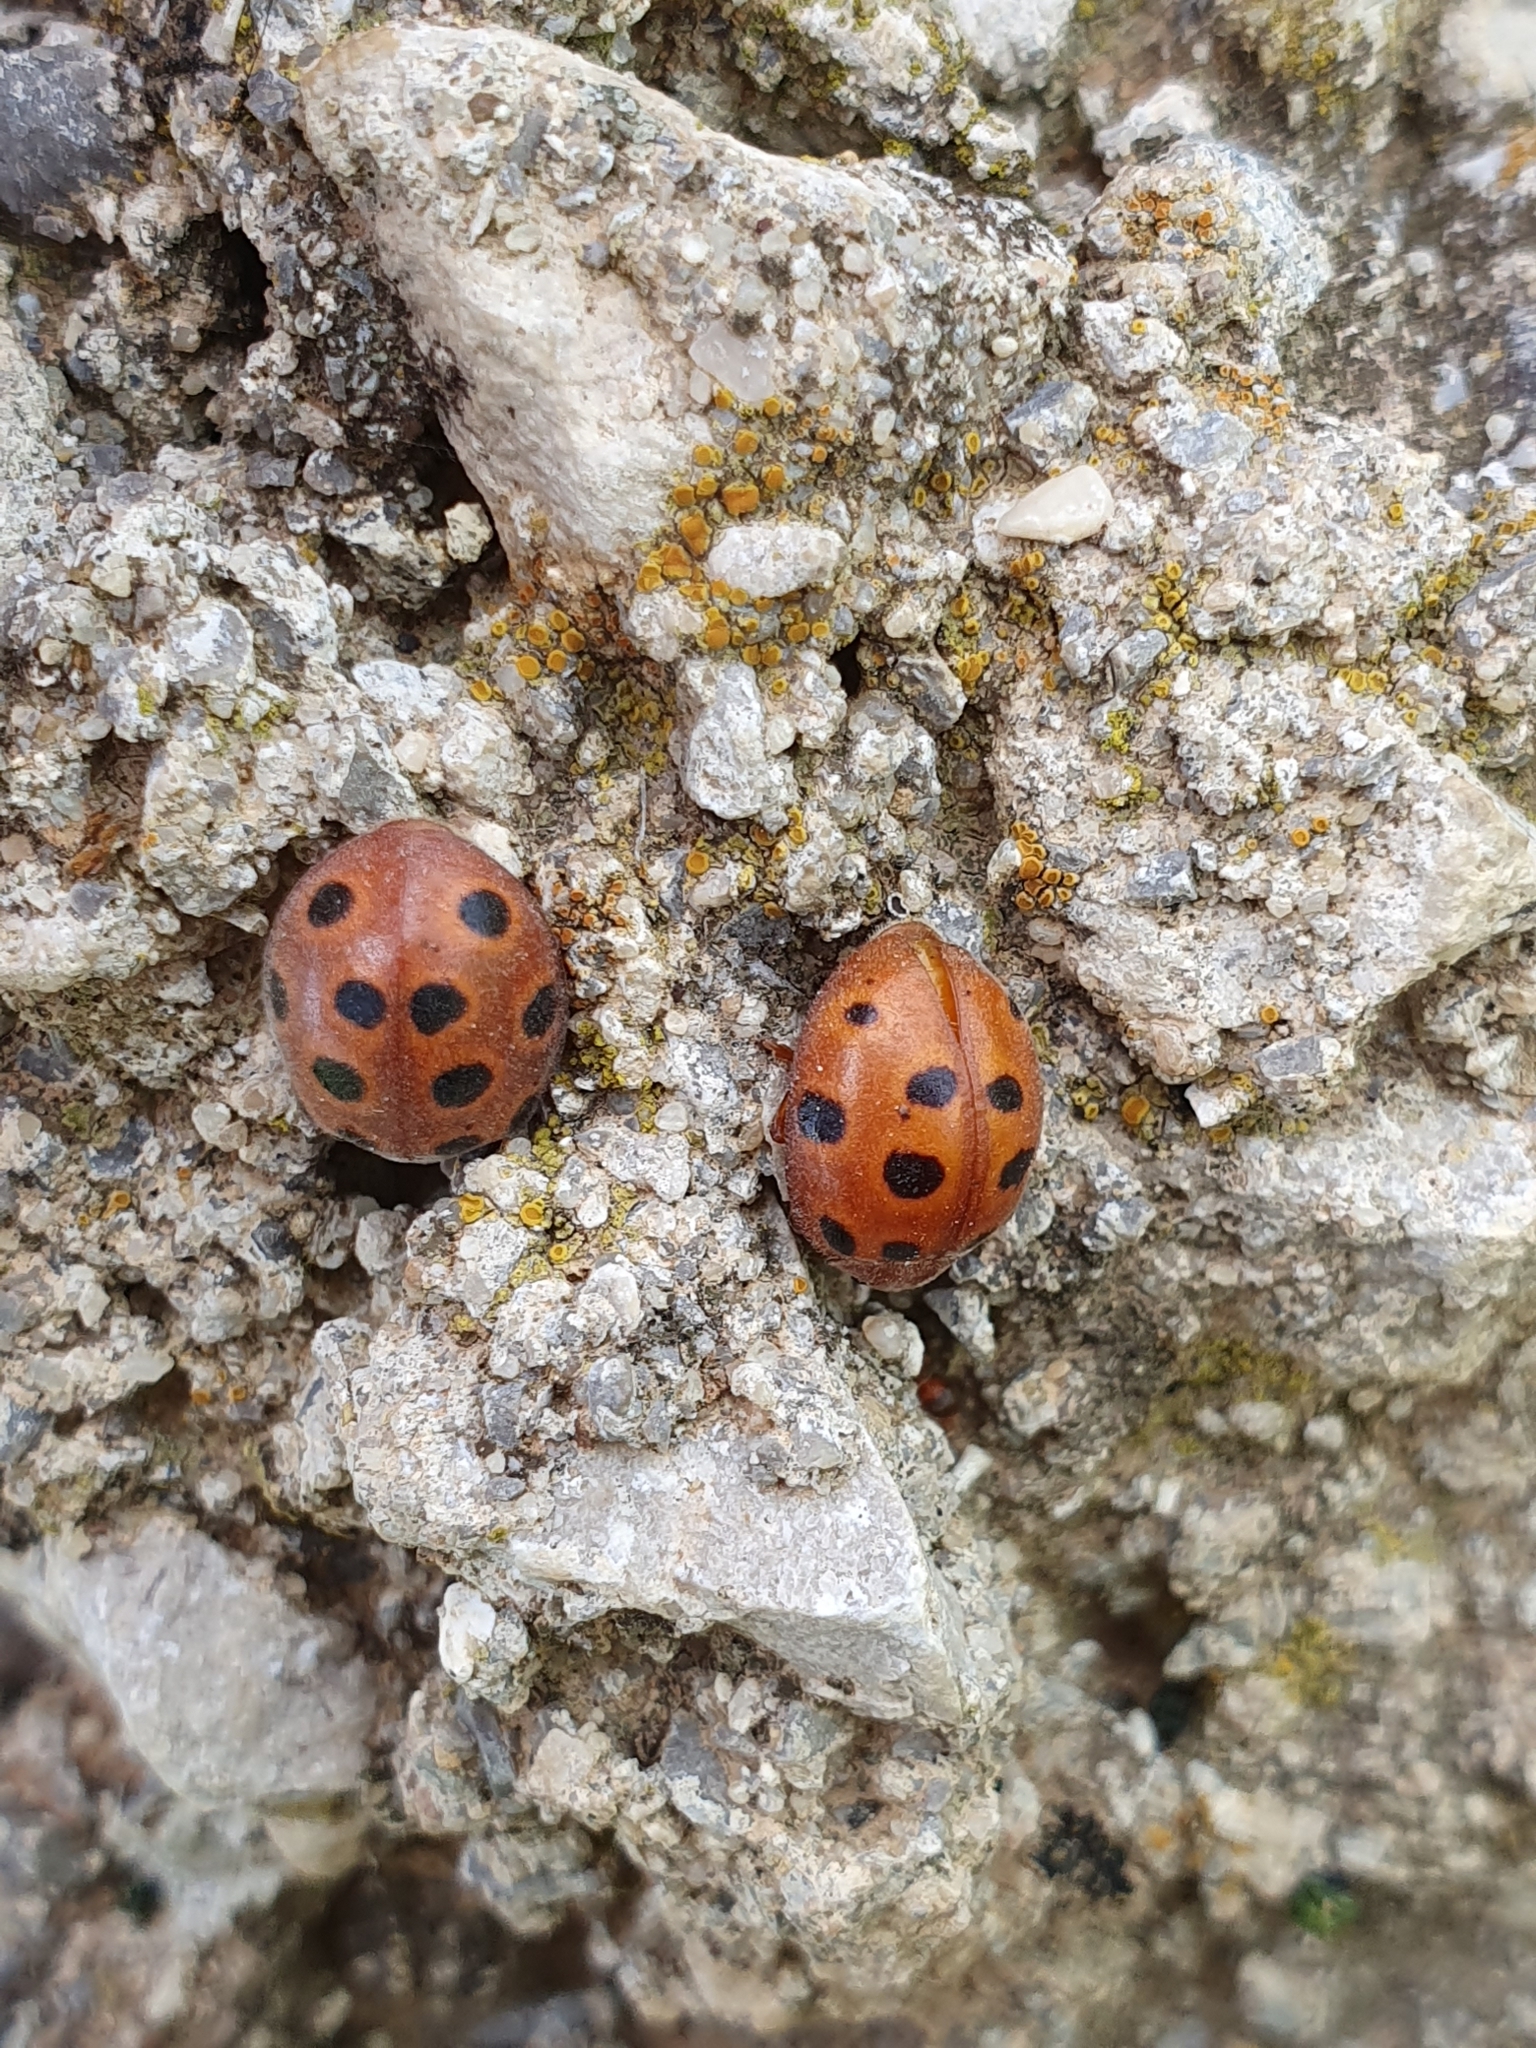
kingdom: Animalia
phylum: Arthropoda
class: Insecta
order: Coleoptera
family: Coccinellidae
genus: Chnootriba
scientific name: Chnootriba elaterii
